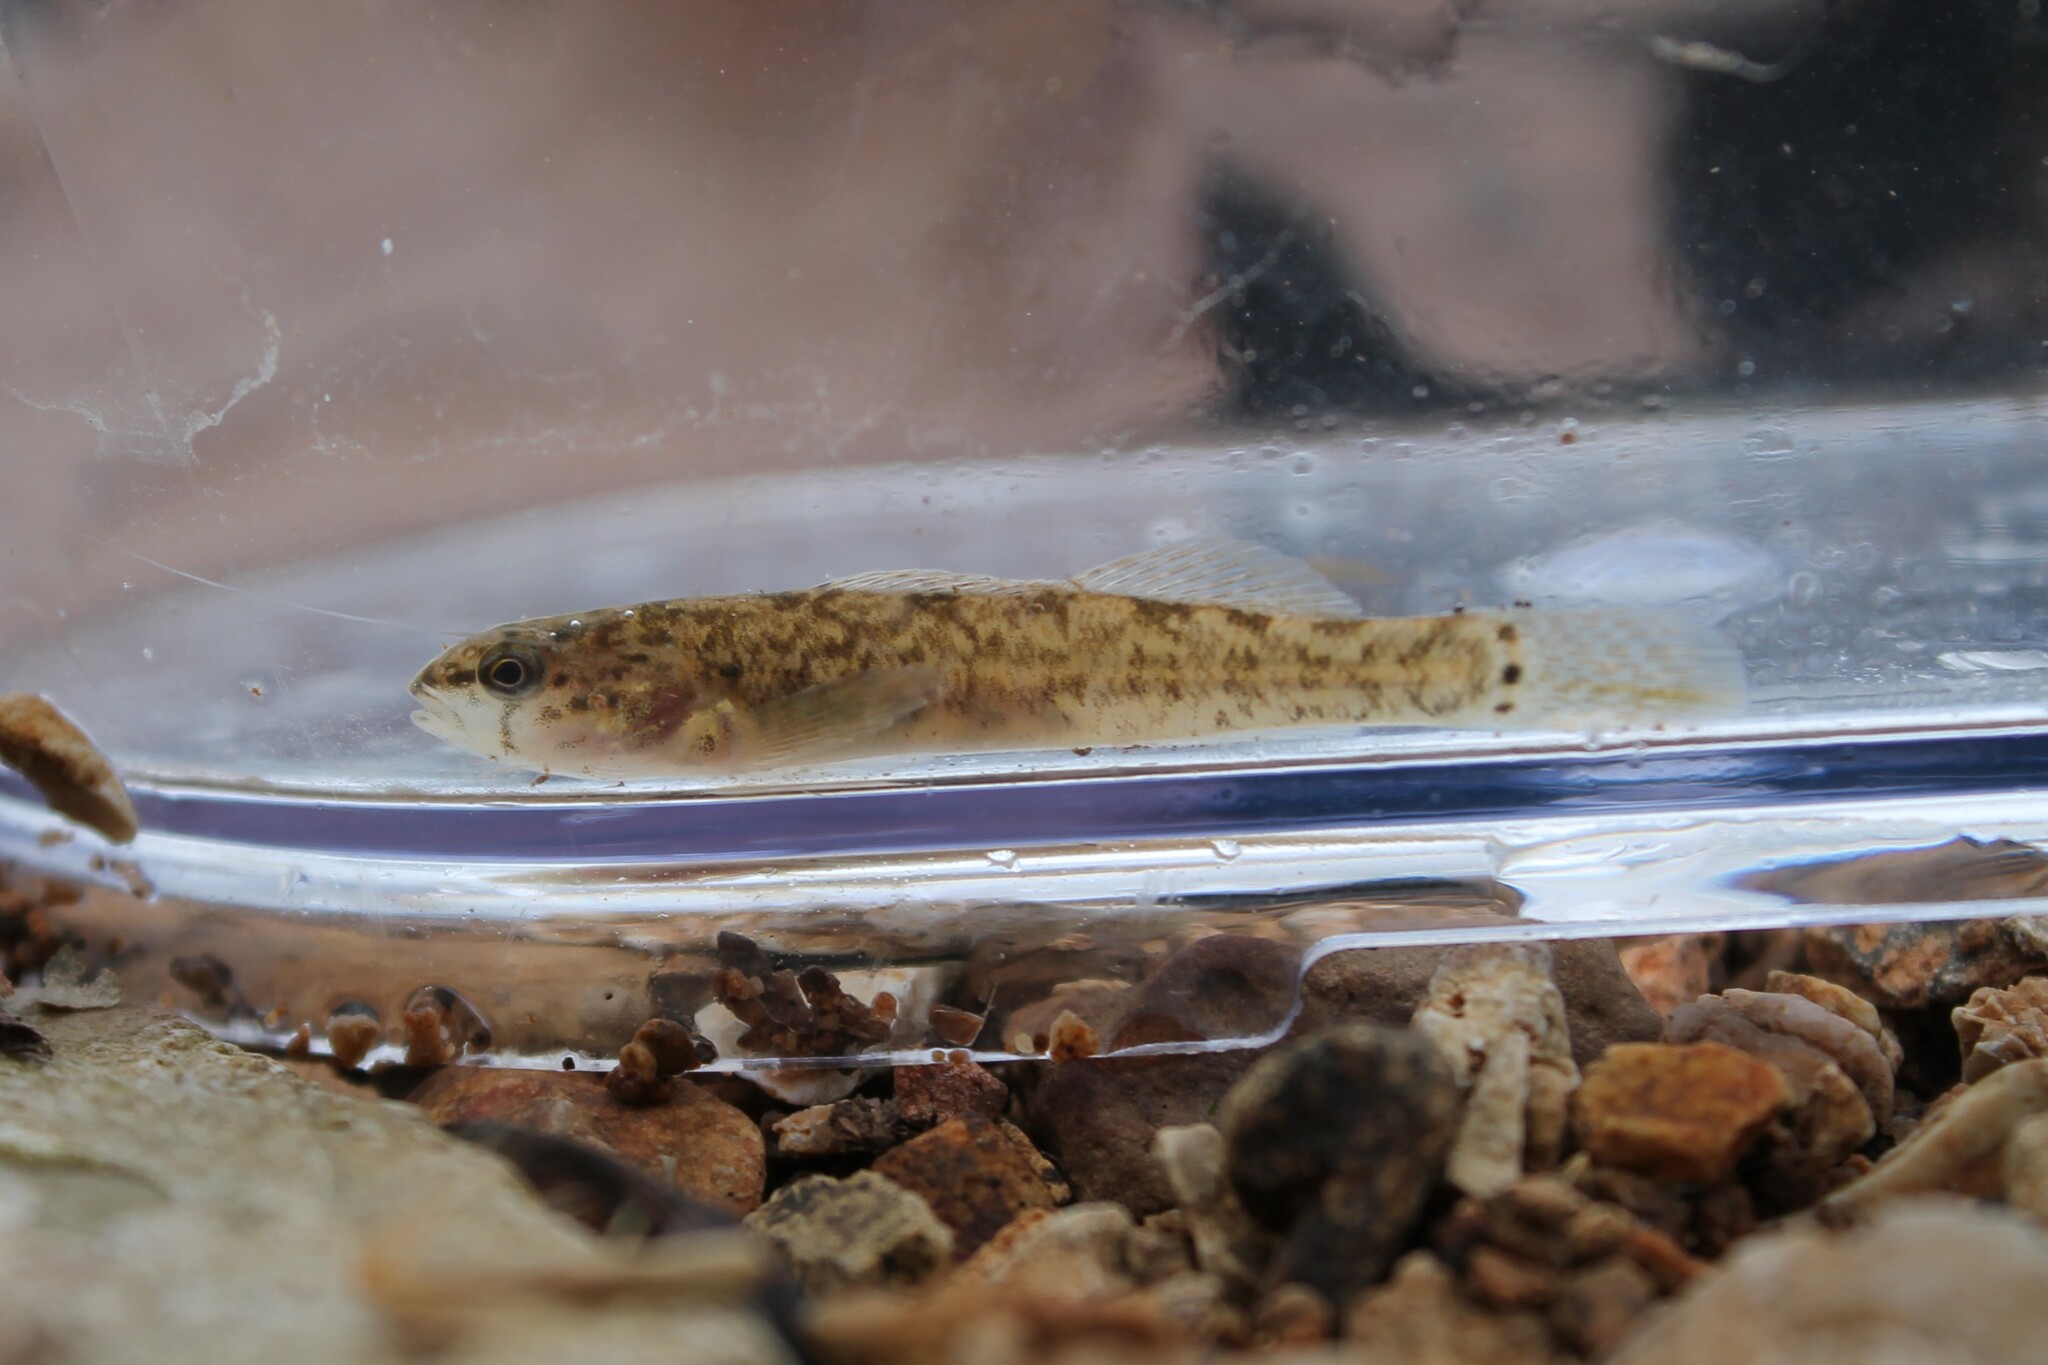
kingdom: Animalia
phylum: Chordata
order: Perciformes
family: Percidae
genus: Etheostoma
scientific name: Etheostoma crossopterum
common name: Fringed darter
